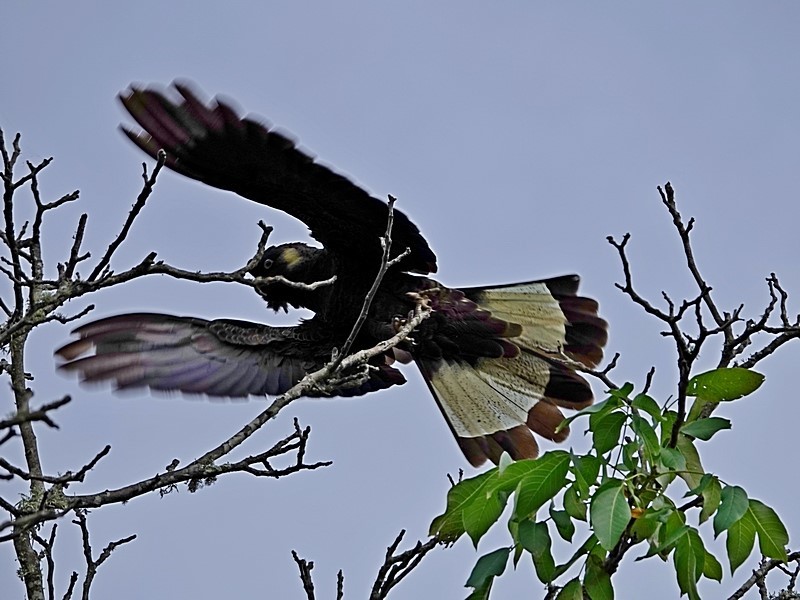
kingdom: Animalia
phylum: Chordata
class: Aves
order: Psittaciformes
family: Cacatuidae
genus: Zanda
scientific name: Zanda funerea
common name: Yellow-tailed black-cockatoo
